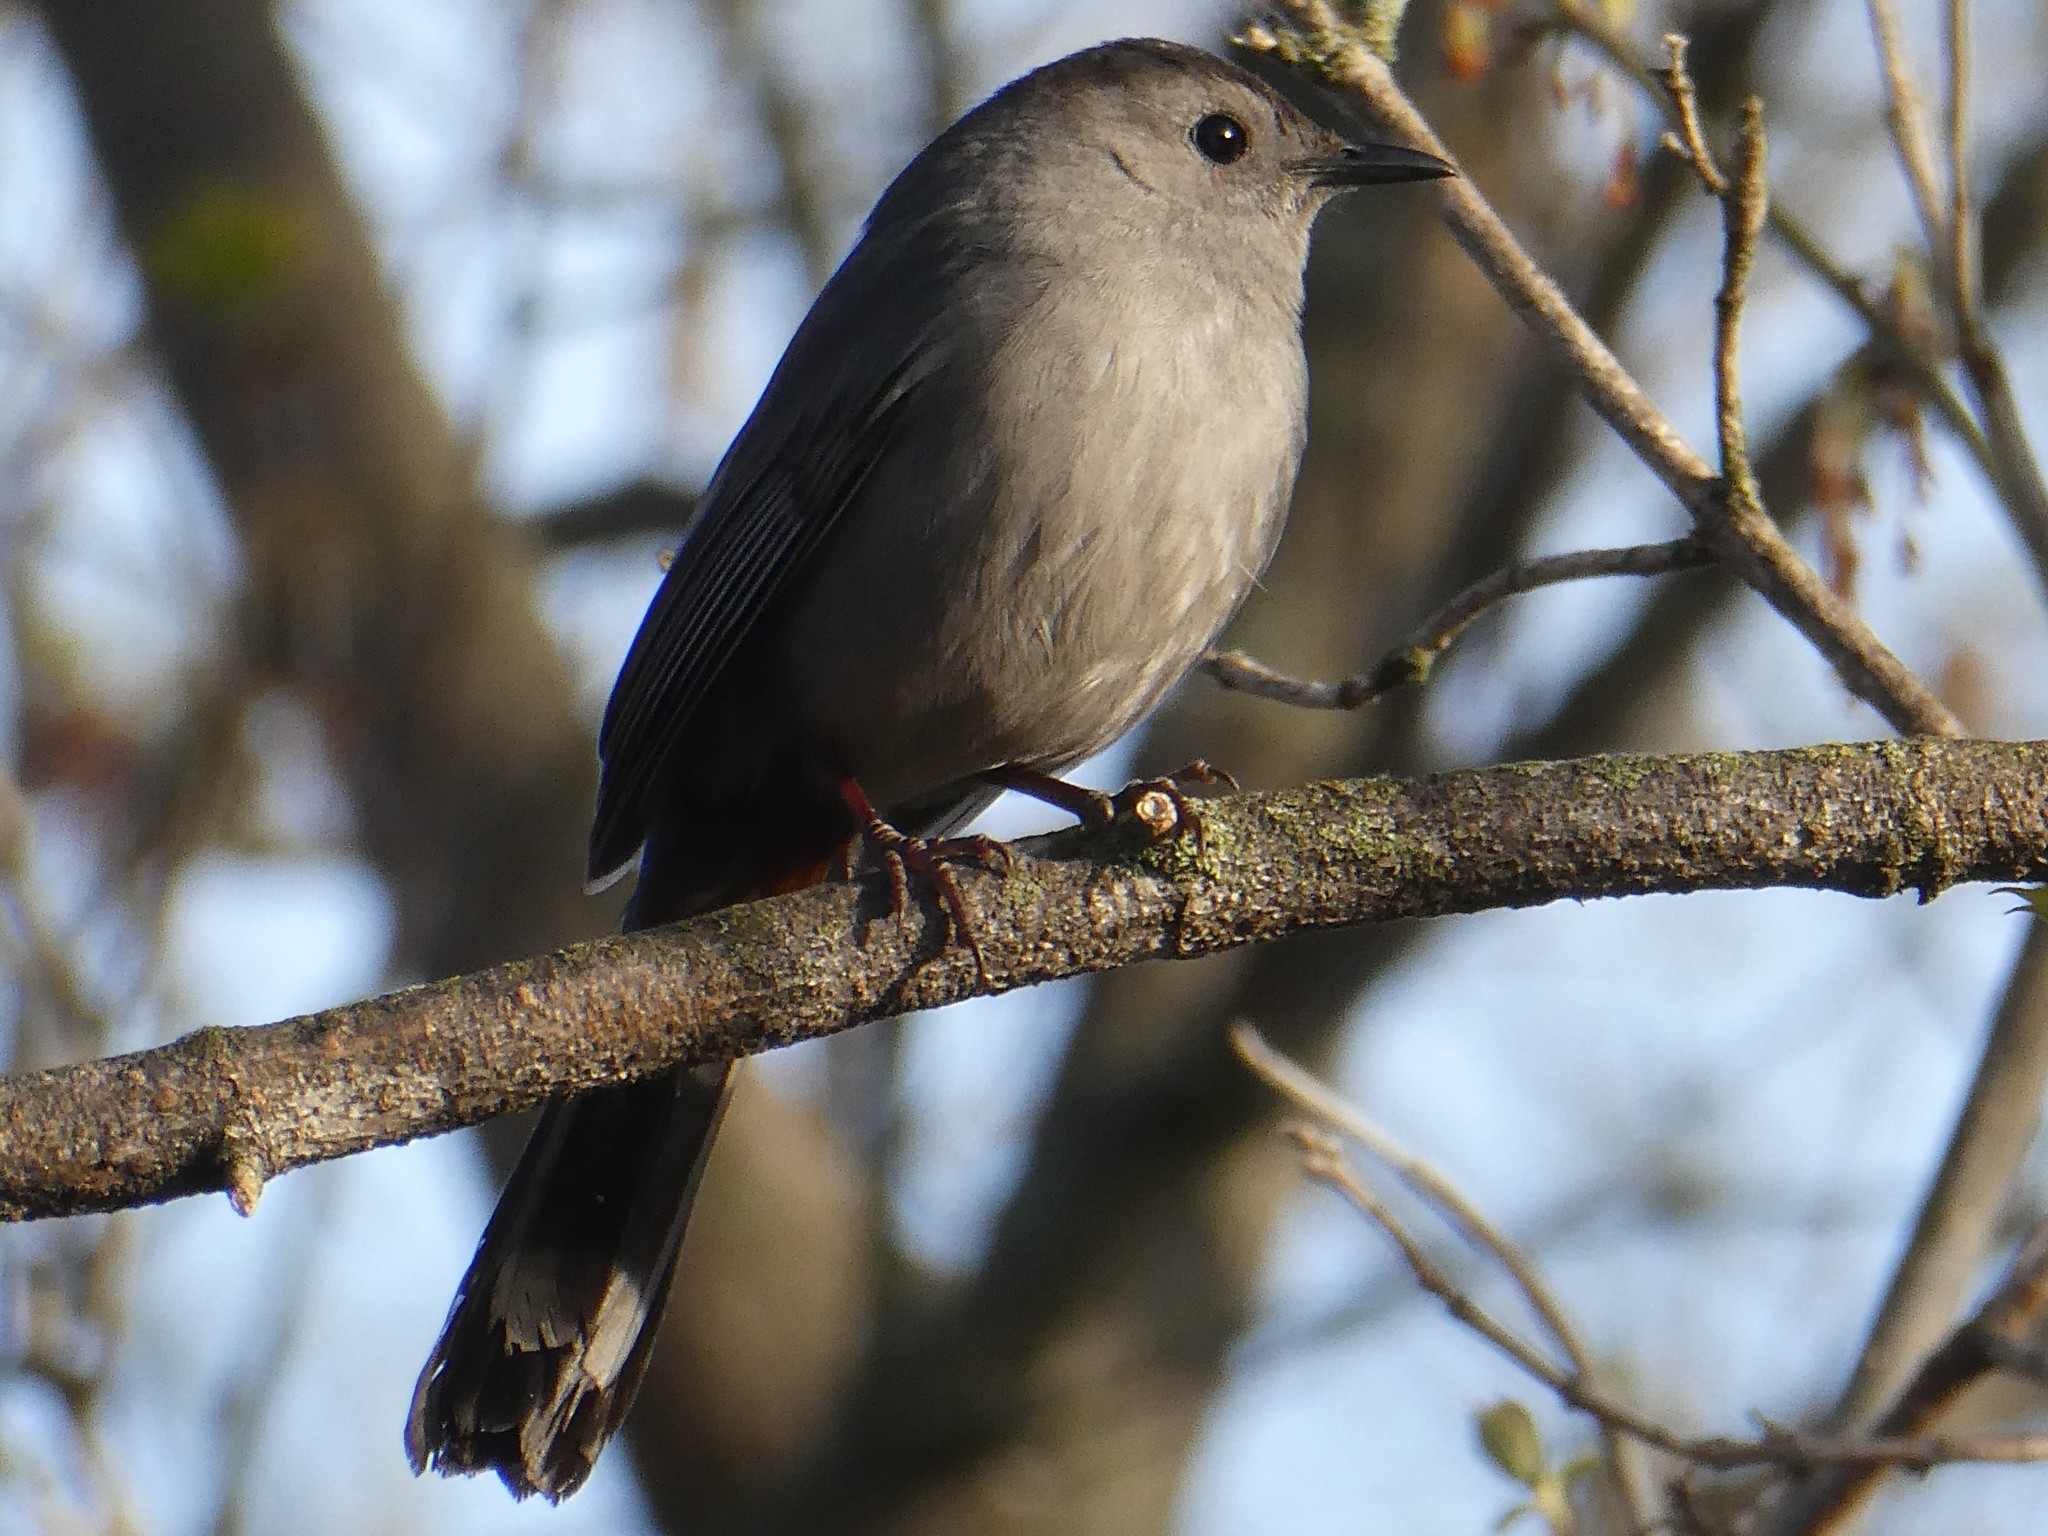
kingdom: Animalia
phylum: Chordata
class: Aves
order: Passeriformes
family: Mimidae
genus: Dumetella
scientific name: Dumetella carolinensis
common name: Gray catbird
